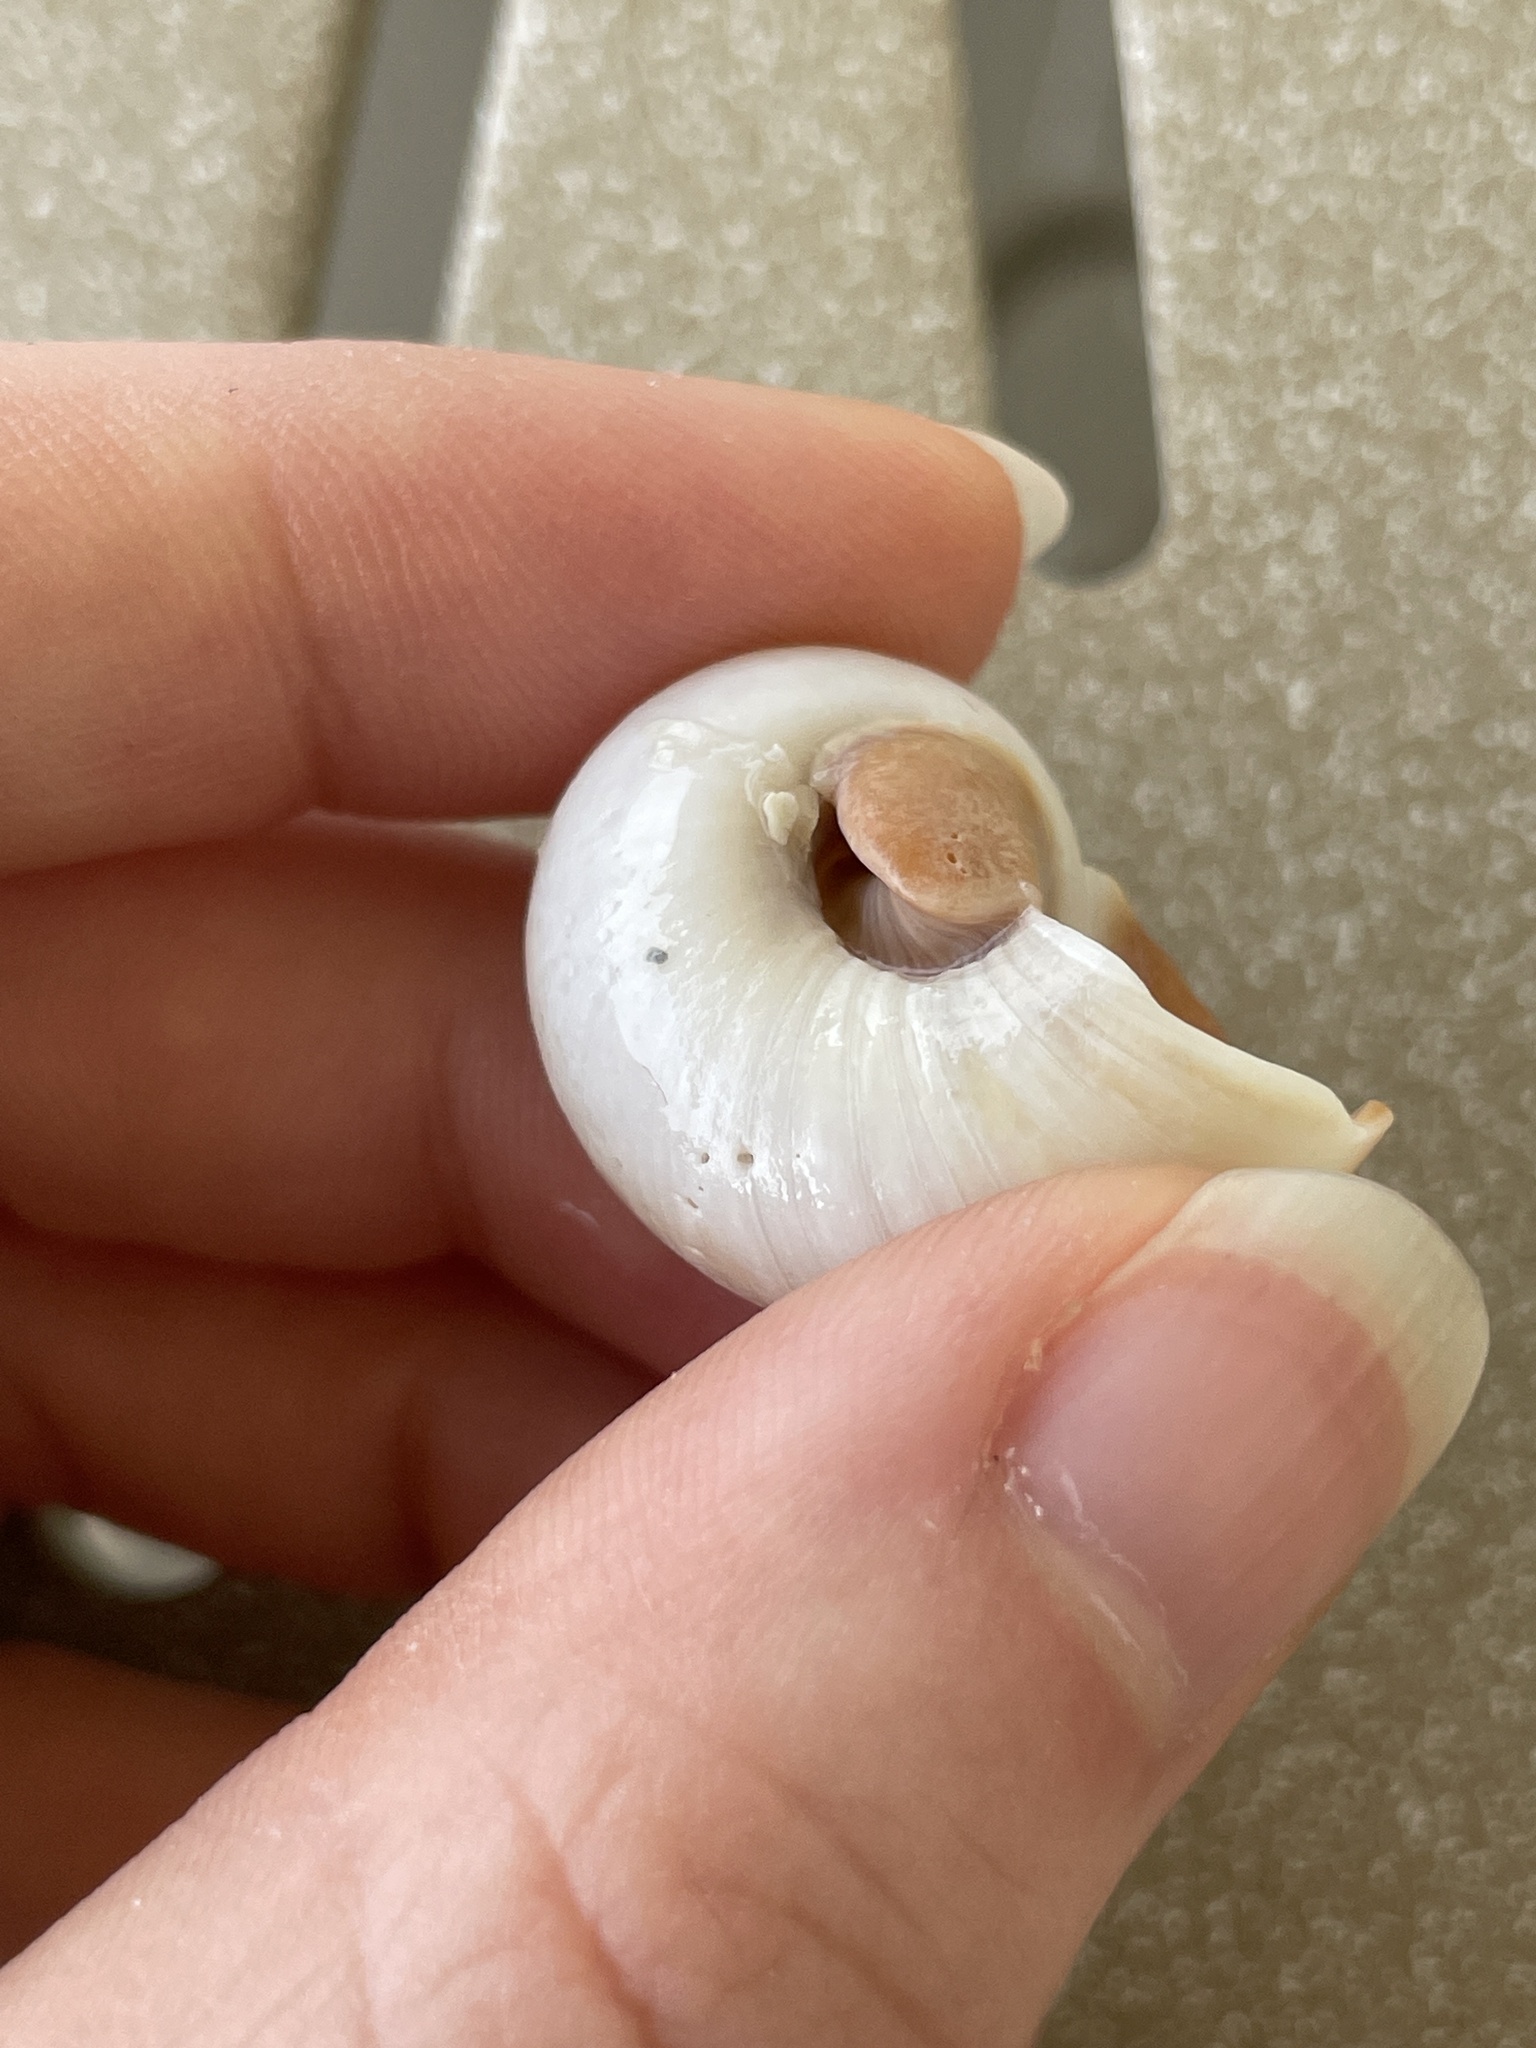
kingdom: Animalia
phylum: Mollusca
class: Gastropoda
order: Littorinimorpha
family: Naticidae
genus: Neverita
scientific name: Neverita duplicata
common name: Lobed moonsnail
